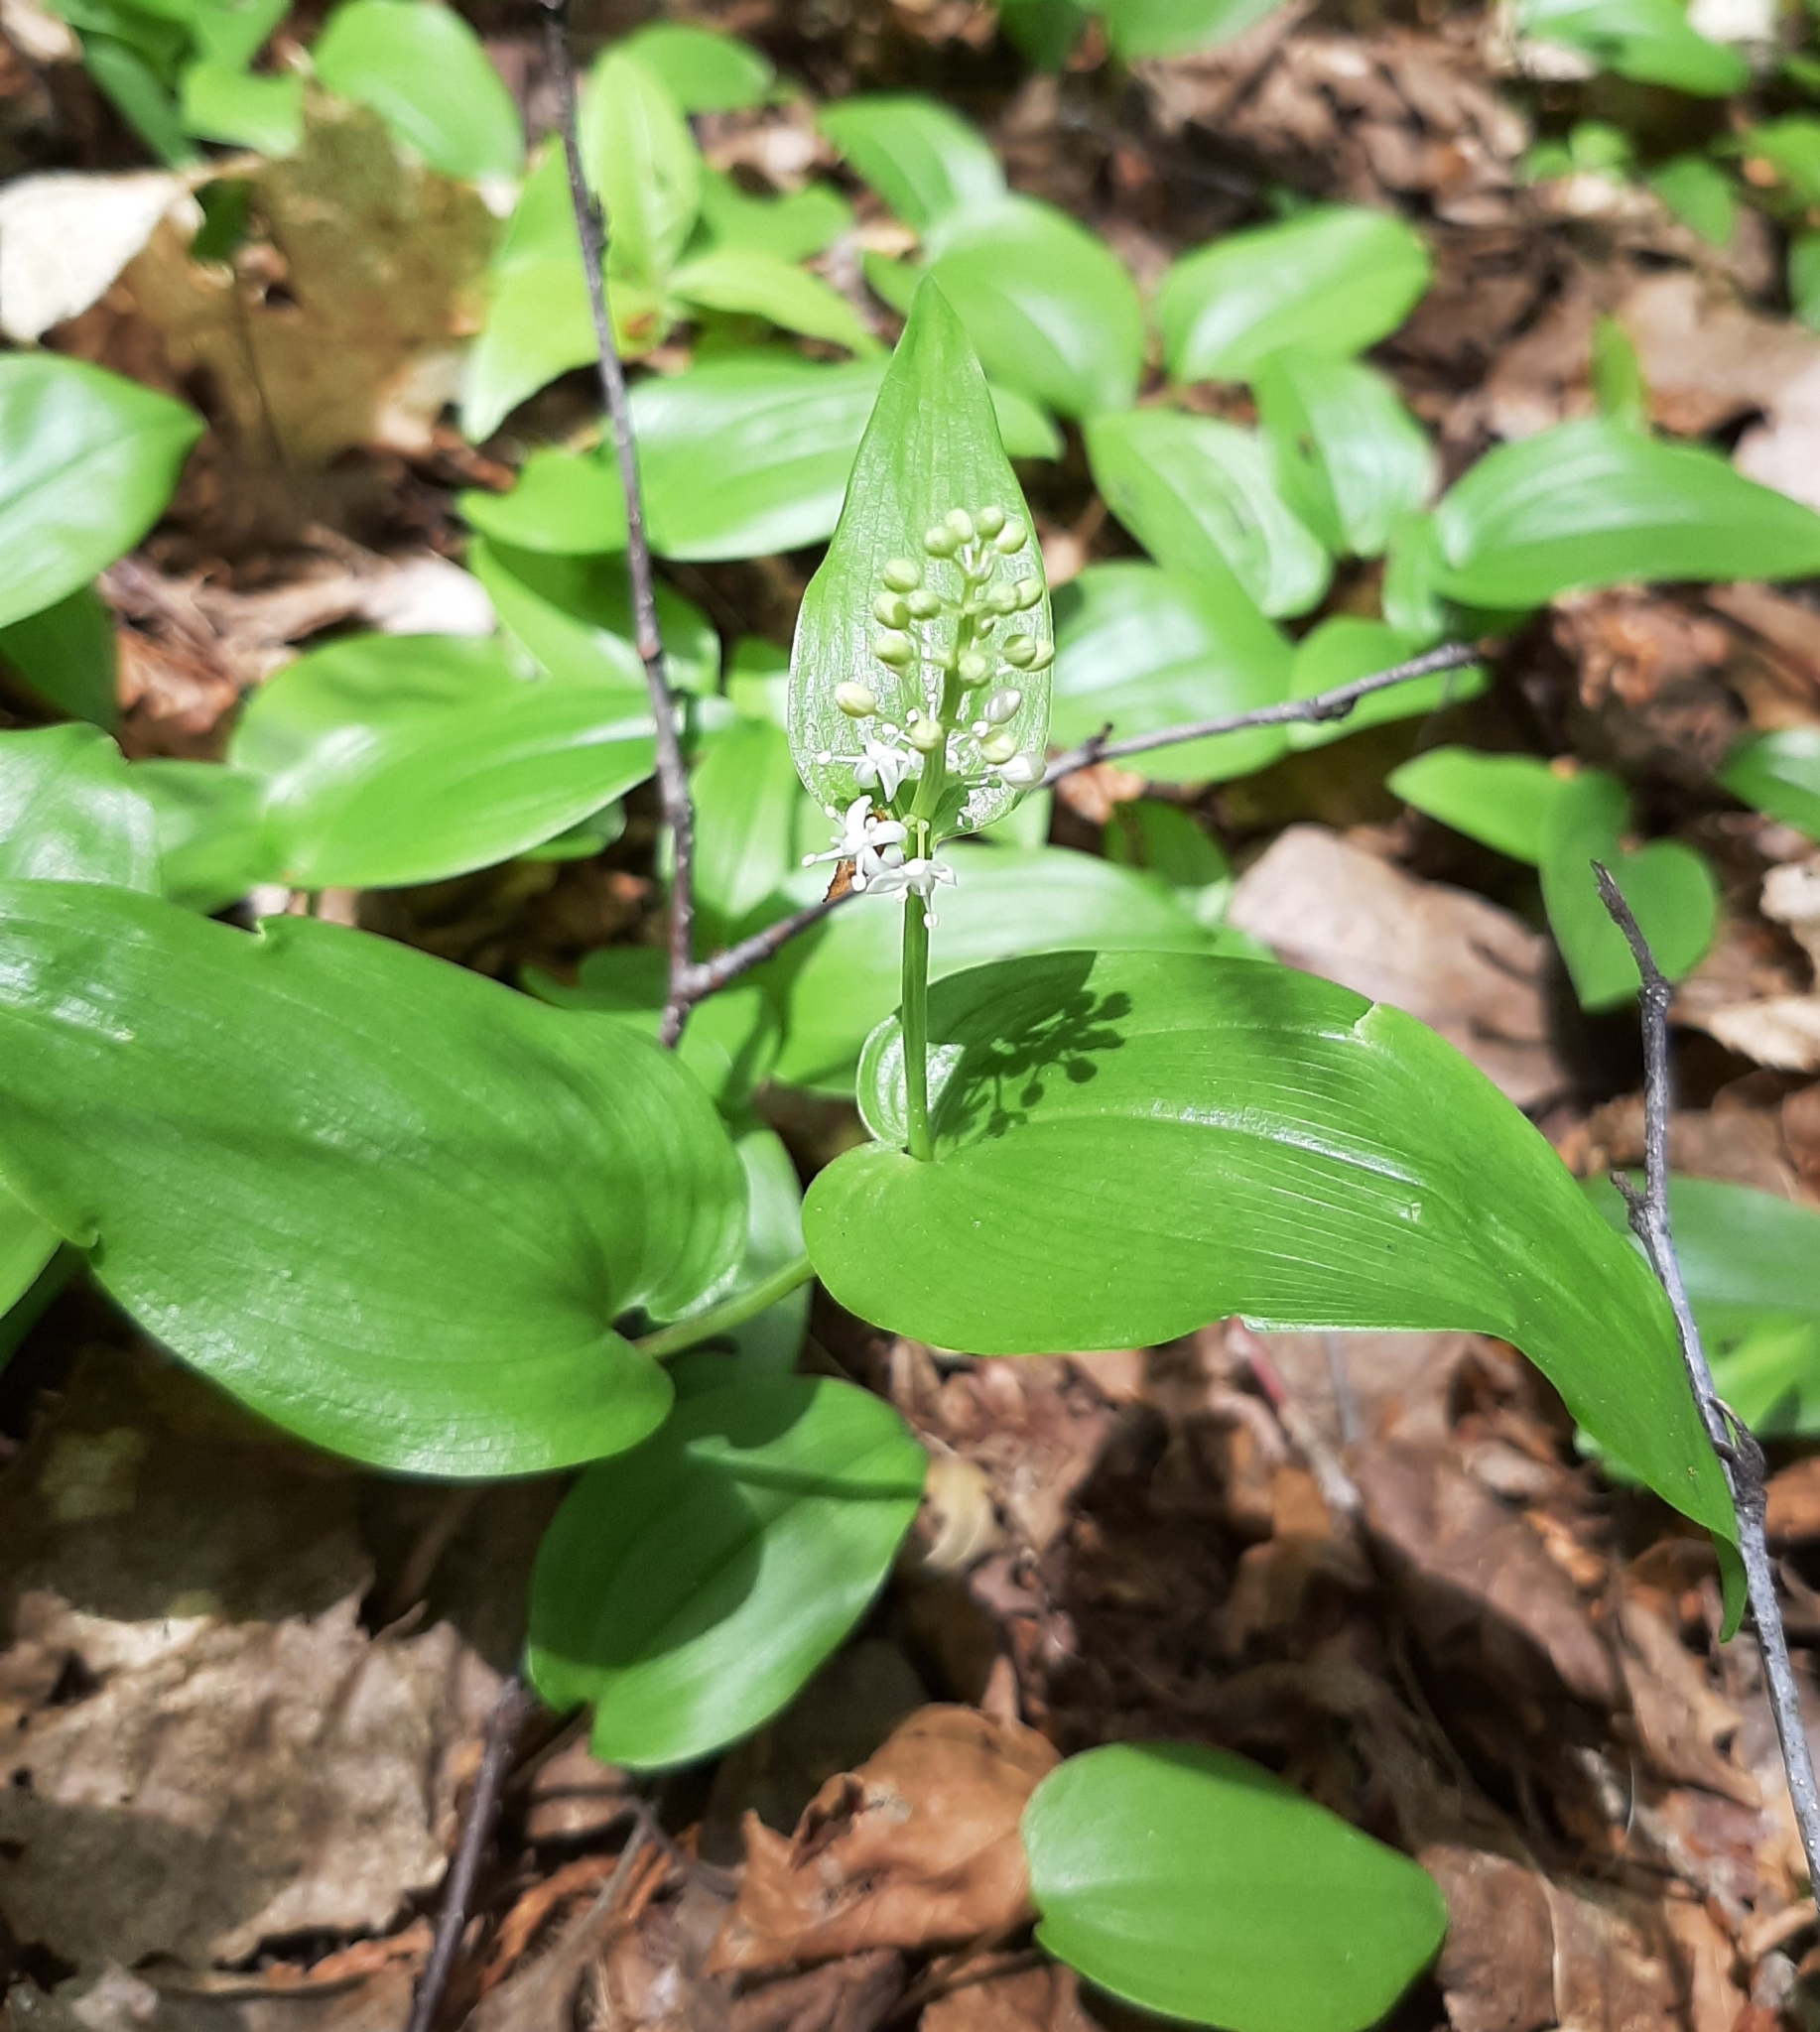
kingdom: Plantae
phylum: Tracheophyta
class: Liliopsida
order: Asparagales
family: Asparagaceae
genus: Maianthemum
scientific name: Maianthemum canadense
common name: False lily-of-the-valley
